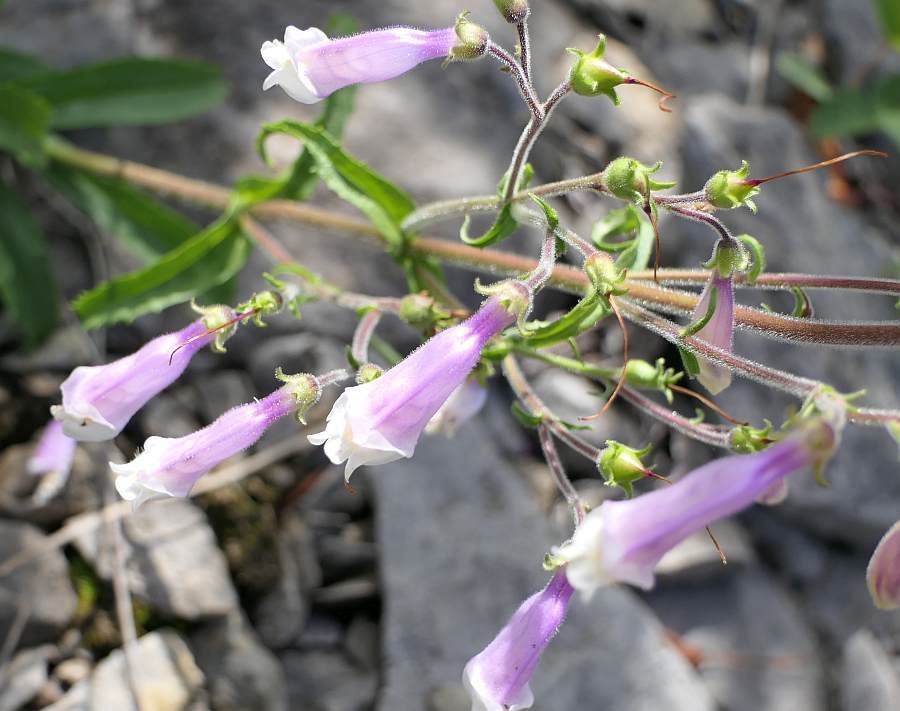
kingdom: Plantae
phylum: Tracheophyta
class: Magnoliopsida
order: Lamiales
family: Plantaginaceae
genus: Penstemon
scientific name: Penstemon hirsutus
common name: Hairy beardtongue
